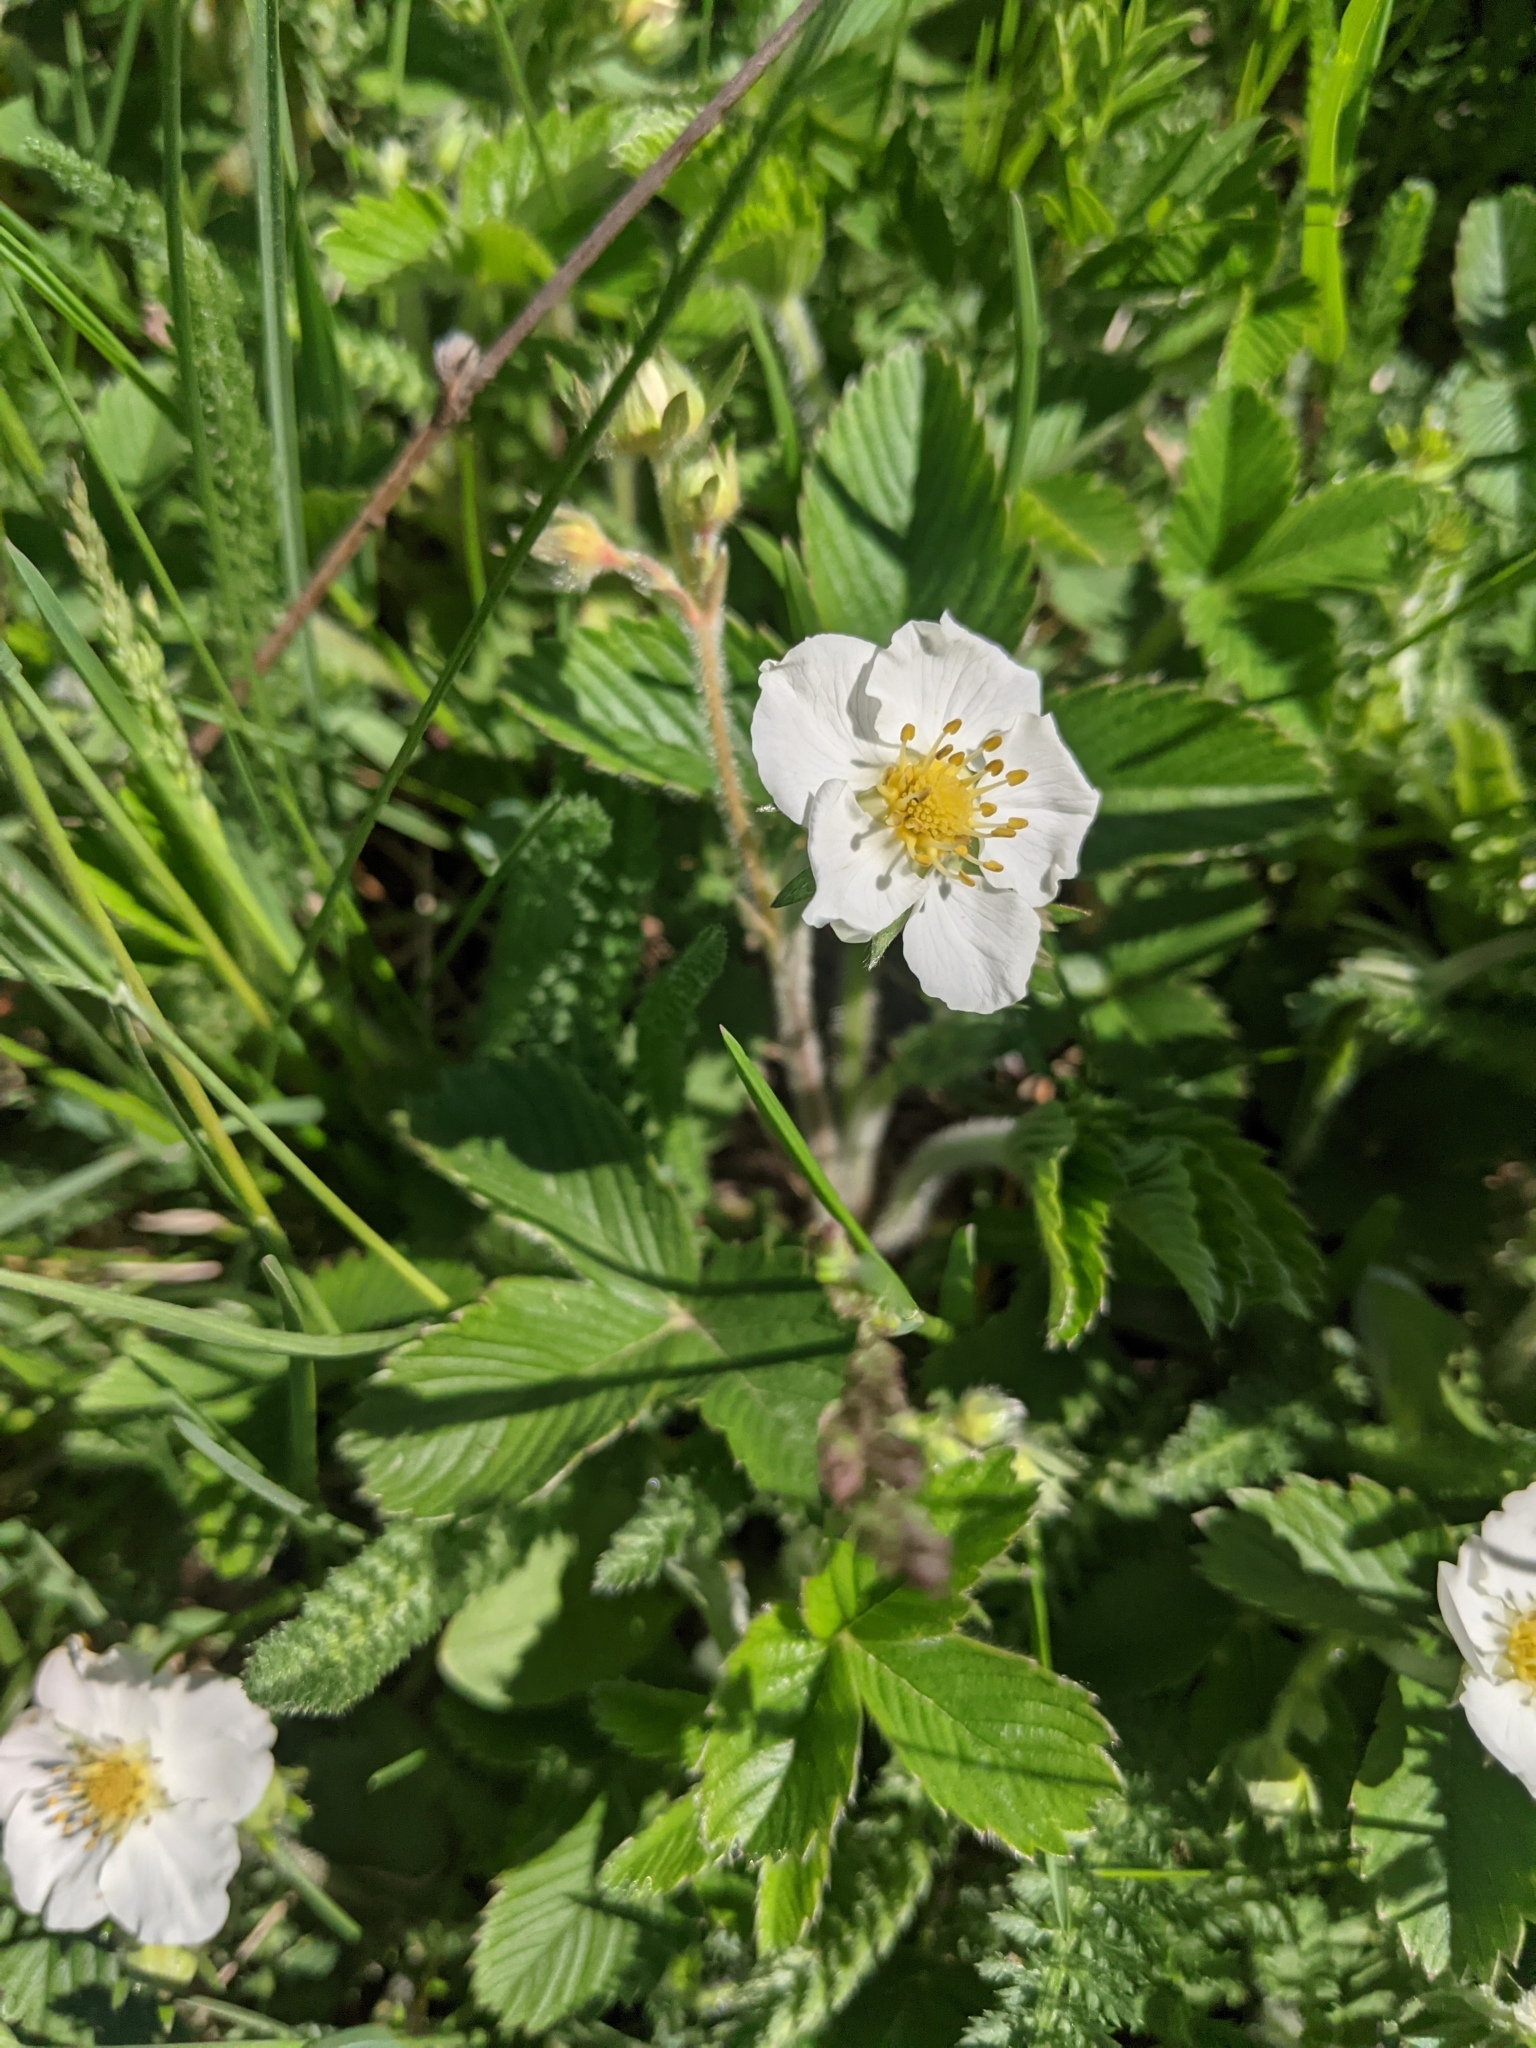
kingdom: Plantae
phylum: Tracheophyta
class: Magnoliopsida
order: Rosales
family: Rosaceae
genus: Fragaria
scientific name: Fragaria viridis
